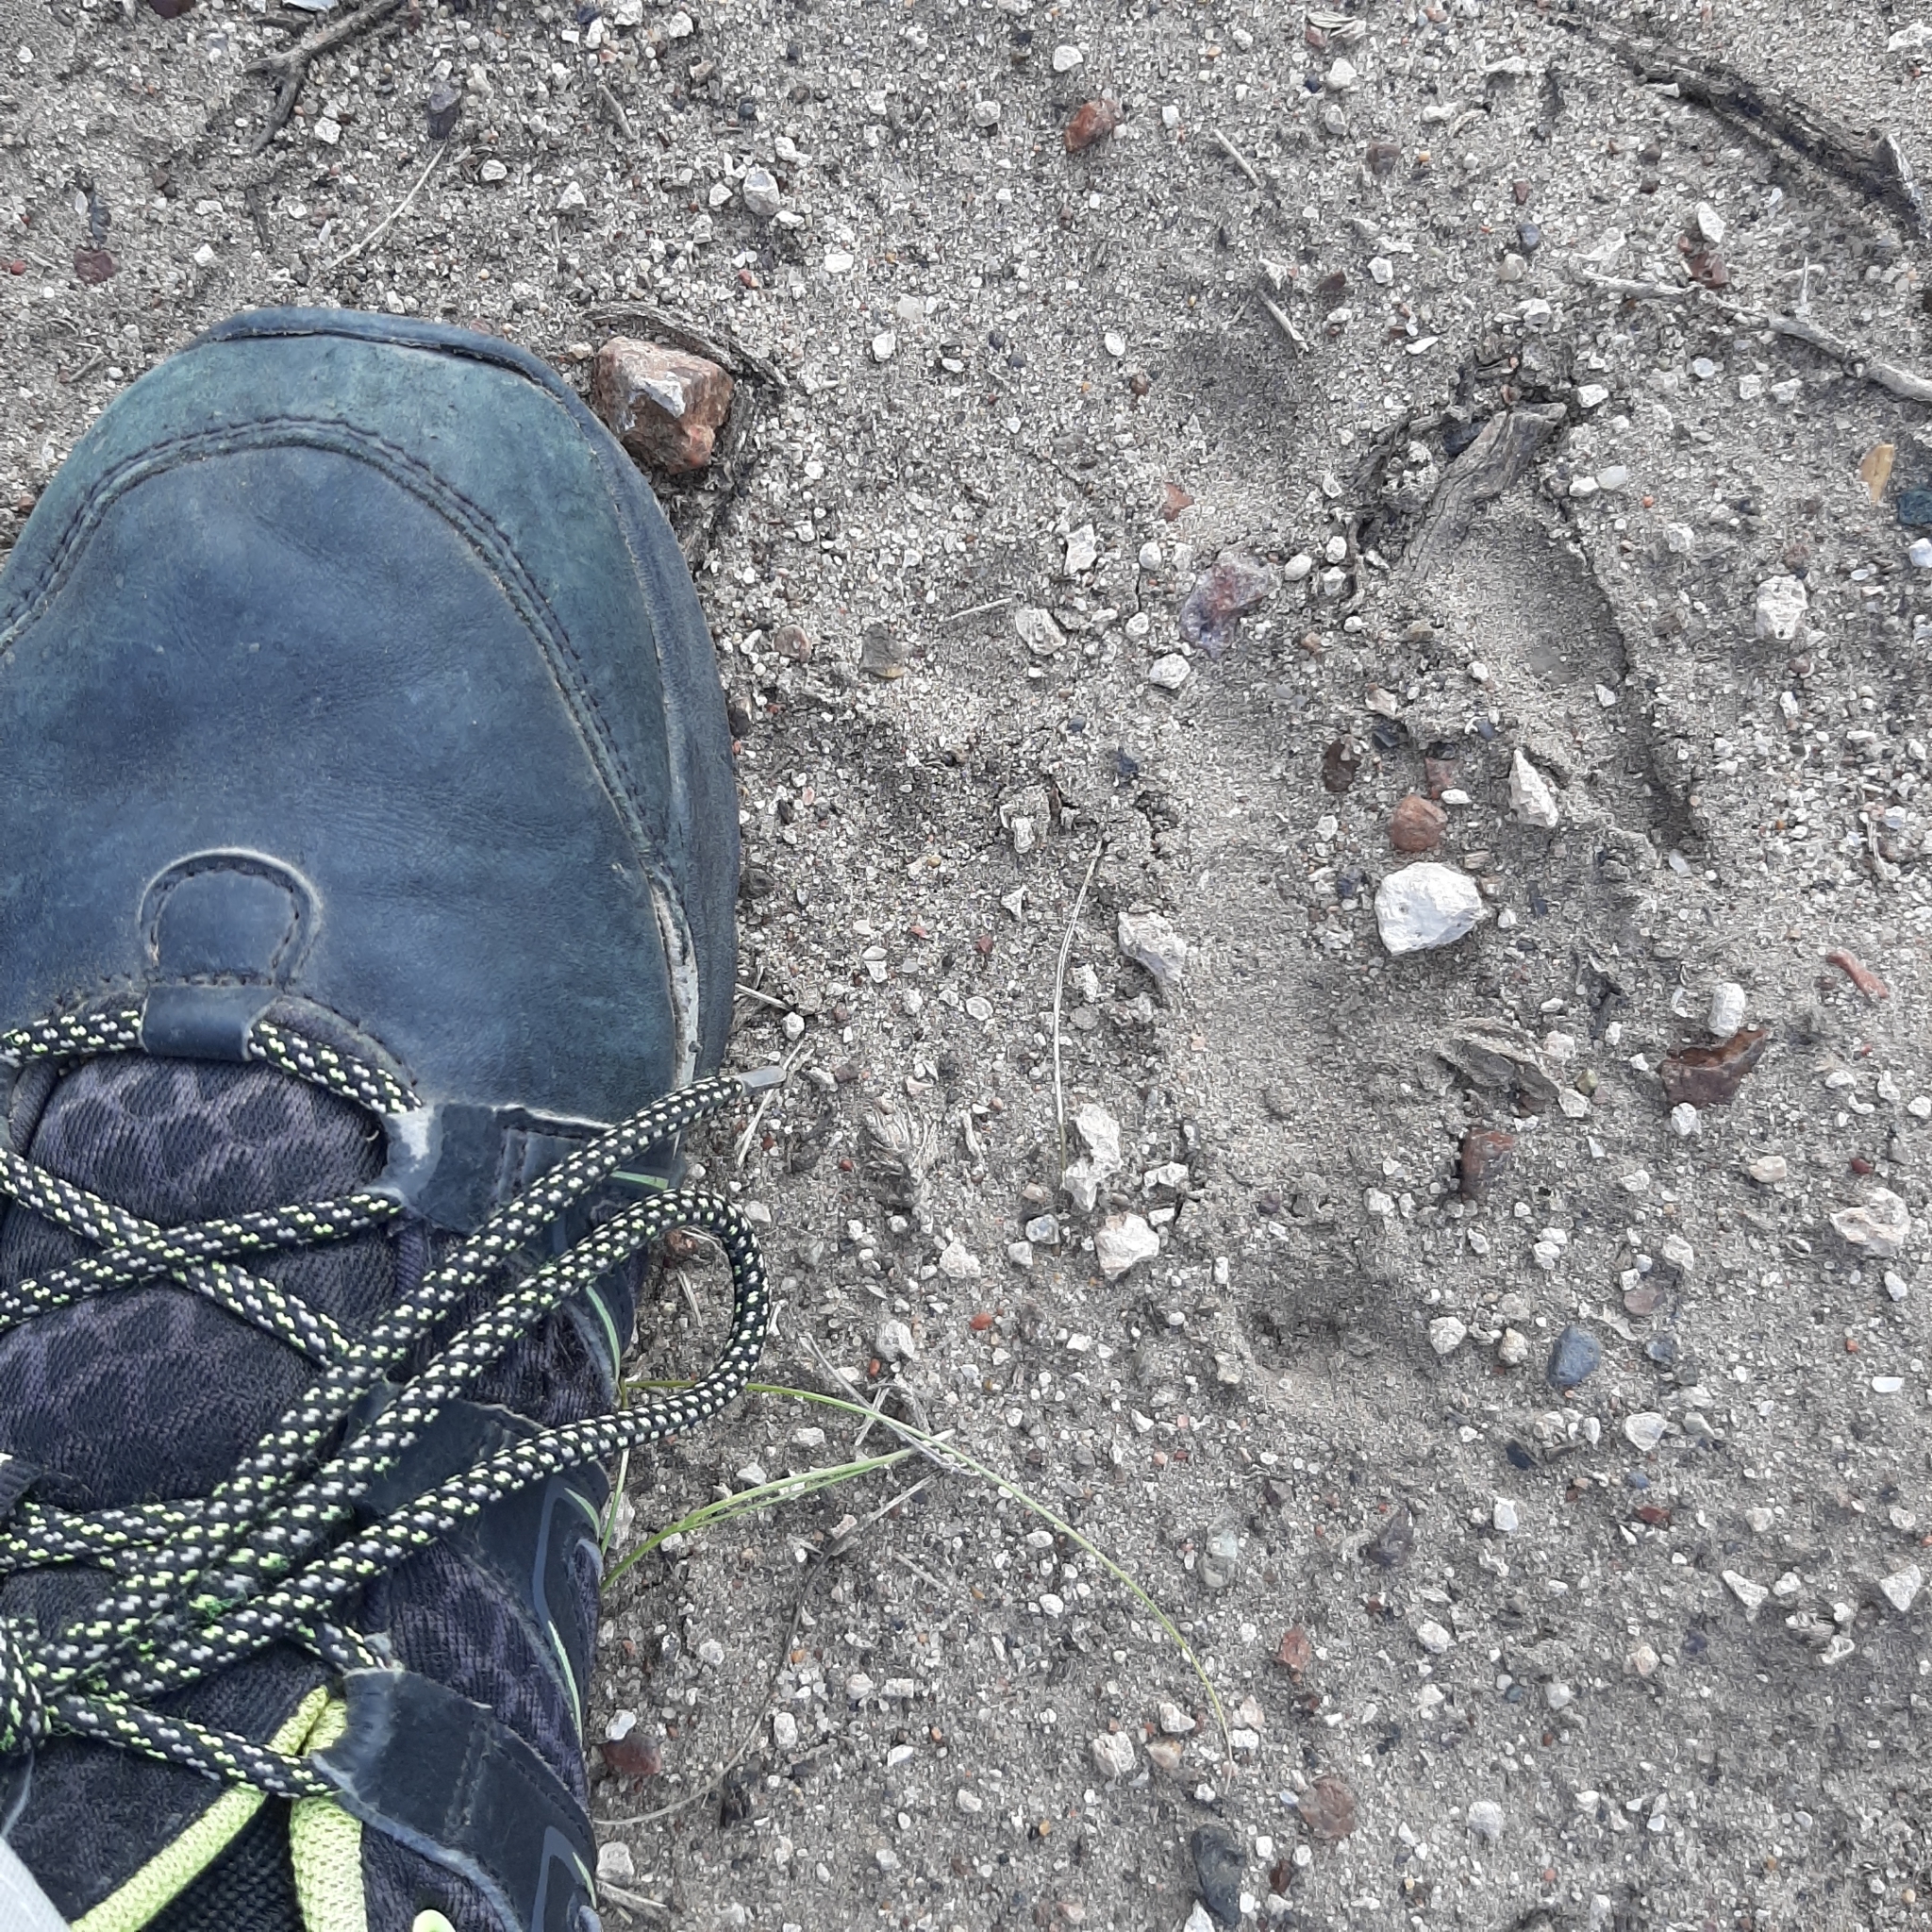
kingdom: Animalia
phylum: Chordata
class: Aves
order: Rheiformes
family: Rheidae
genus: Rhea
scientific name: Rhea pennata
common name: Lesser rhea
